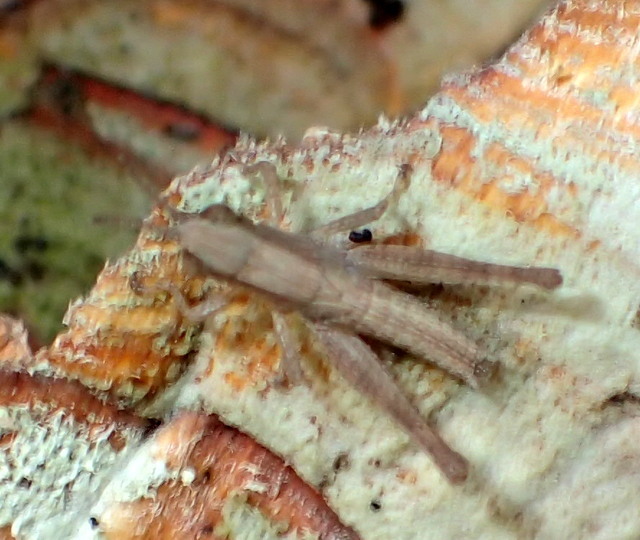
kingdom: Animalia
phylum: Arthropoda
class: Insecta
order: Orthoptera
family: Acrididae
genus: Dichromorpha
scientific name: Dichromorpha viridis
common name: Short-winged green grasshopper
